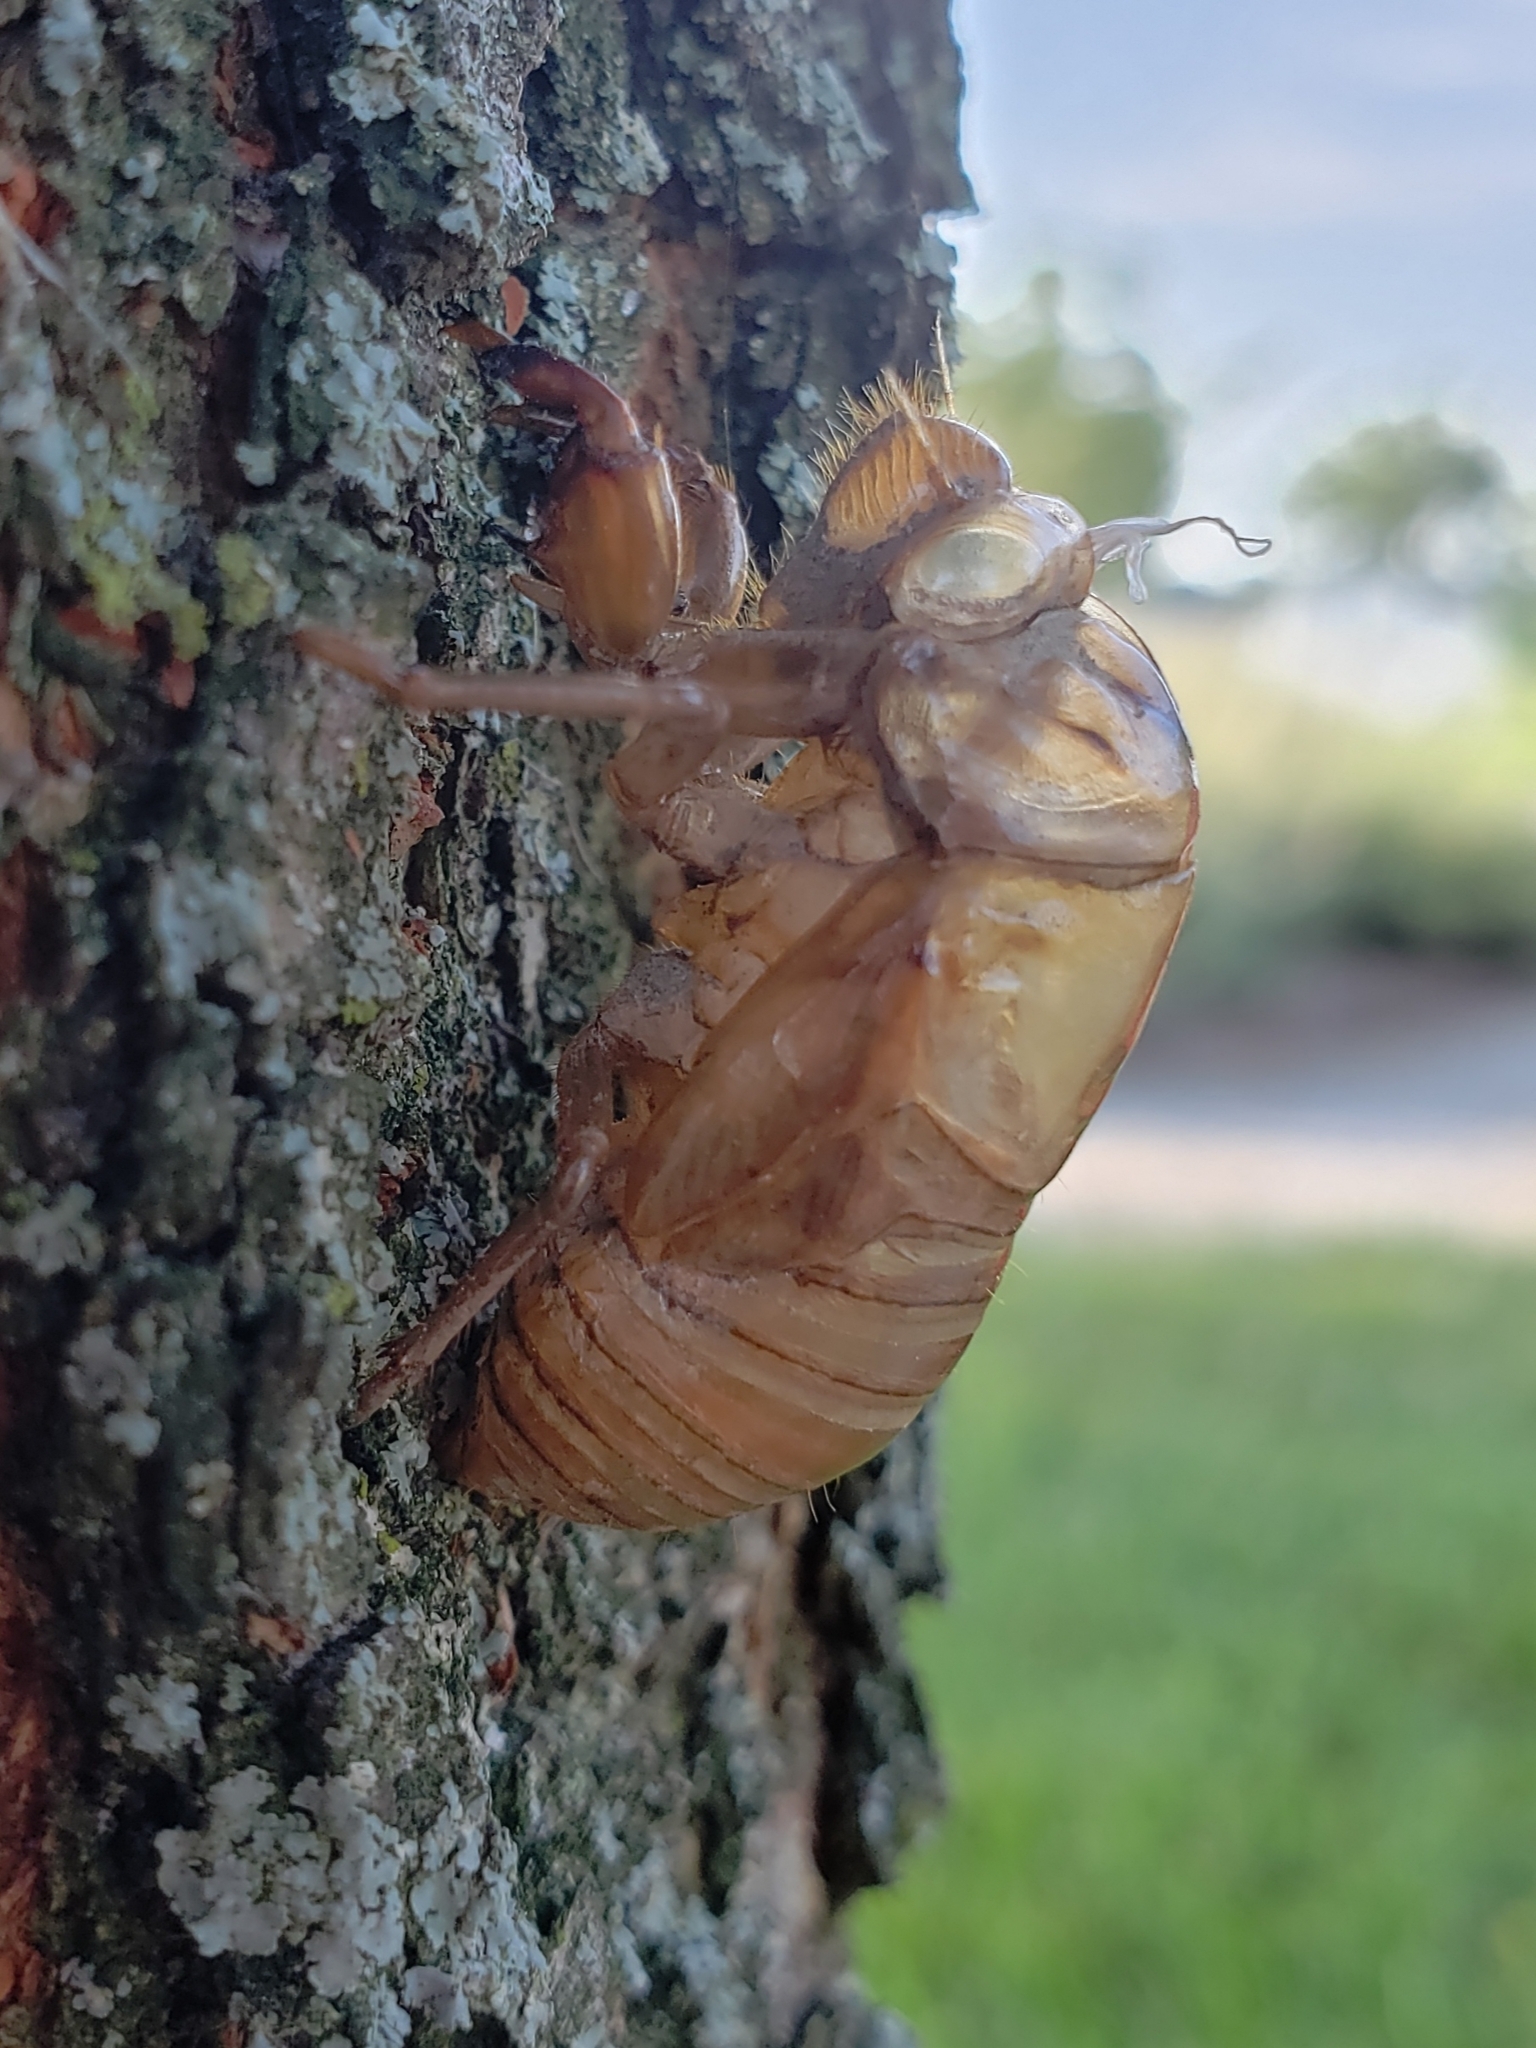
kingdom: Animalia
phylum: Arthropoda
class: Insecta
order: Hemiptera
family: Cicadidae
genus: Neotibicen
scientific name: Neotibicen
